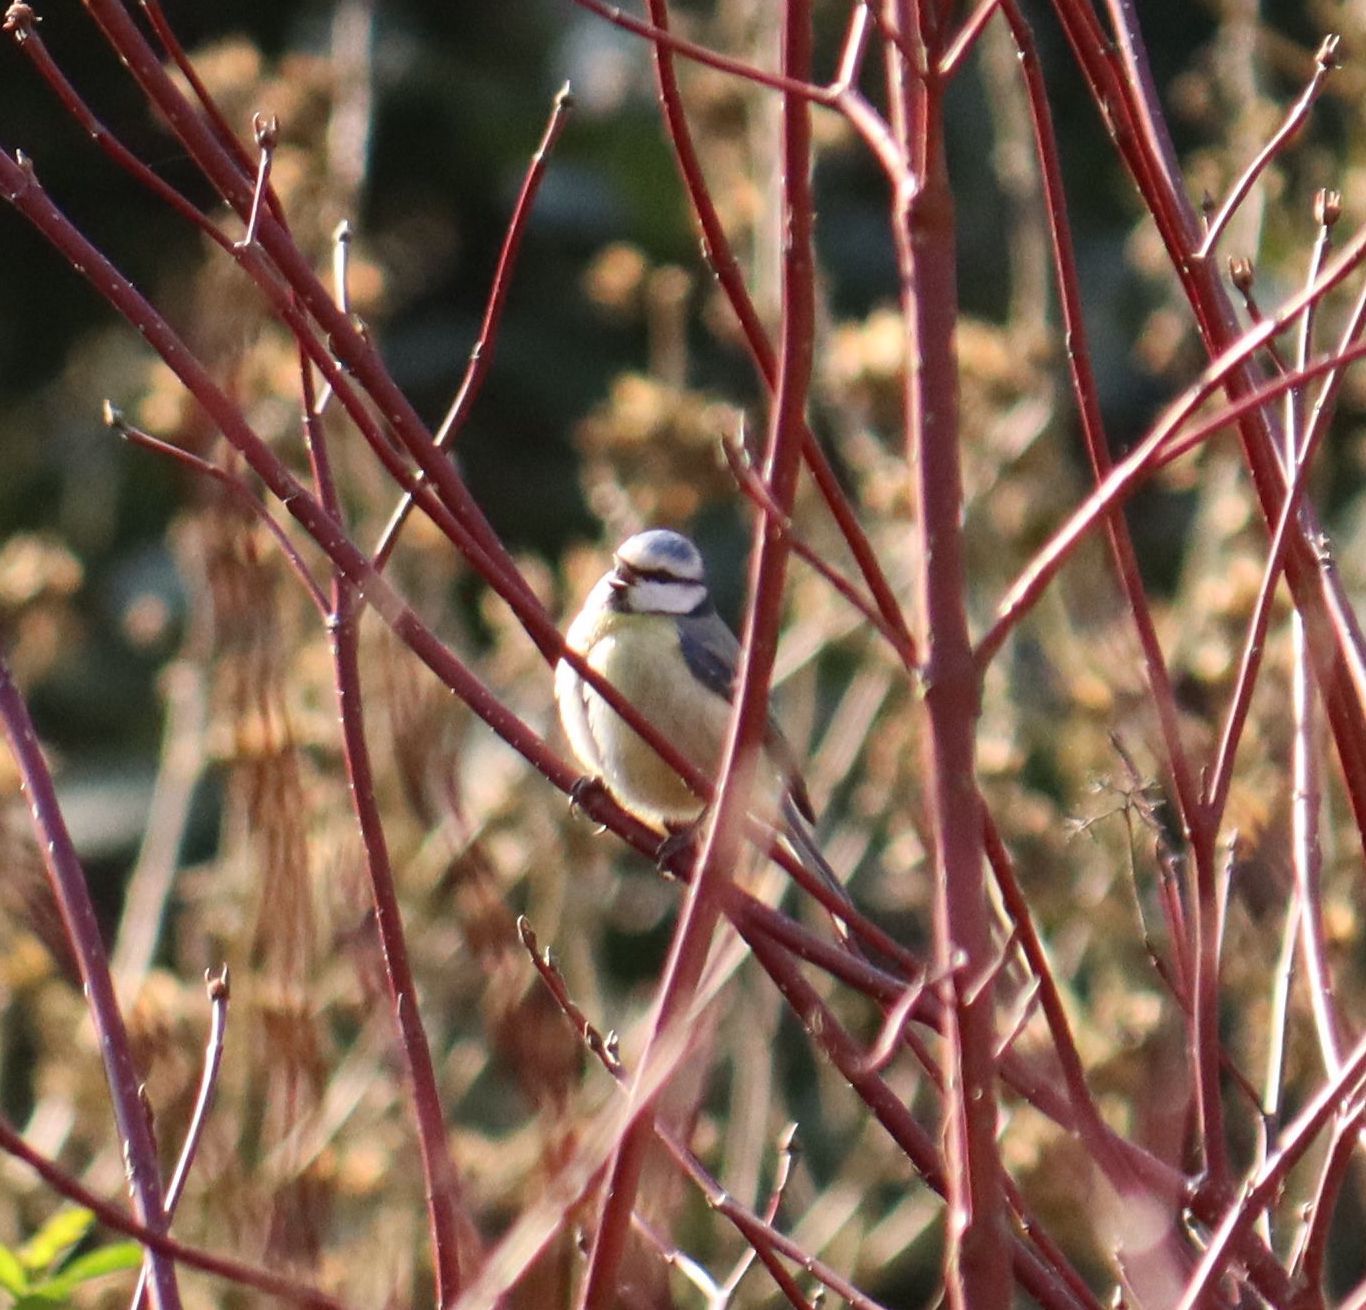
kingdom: Animalia
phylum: Chordata
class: Aves
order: Passeriformes
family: Paridae
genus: Cyanistes
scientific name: Cyanistes caeruleus
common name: Eurasian blue tit
